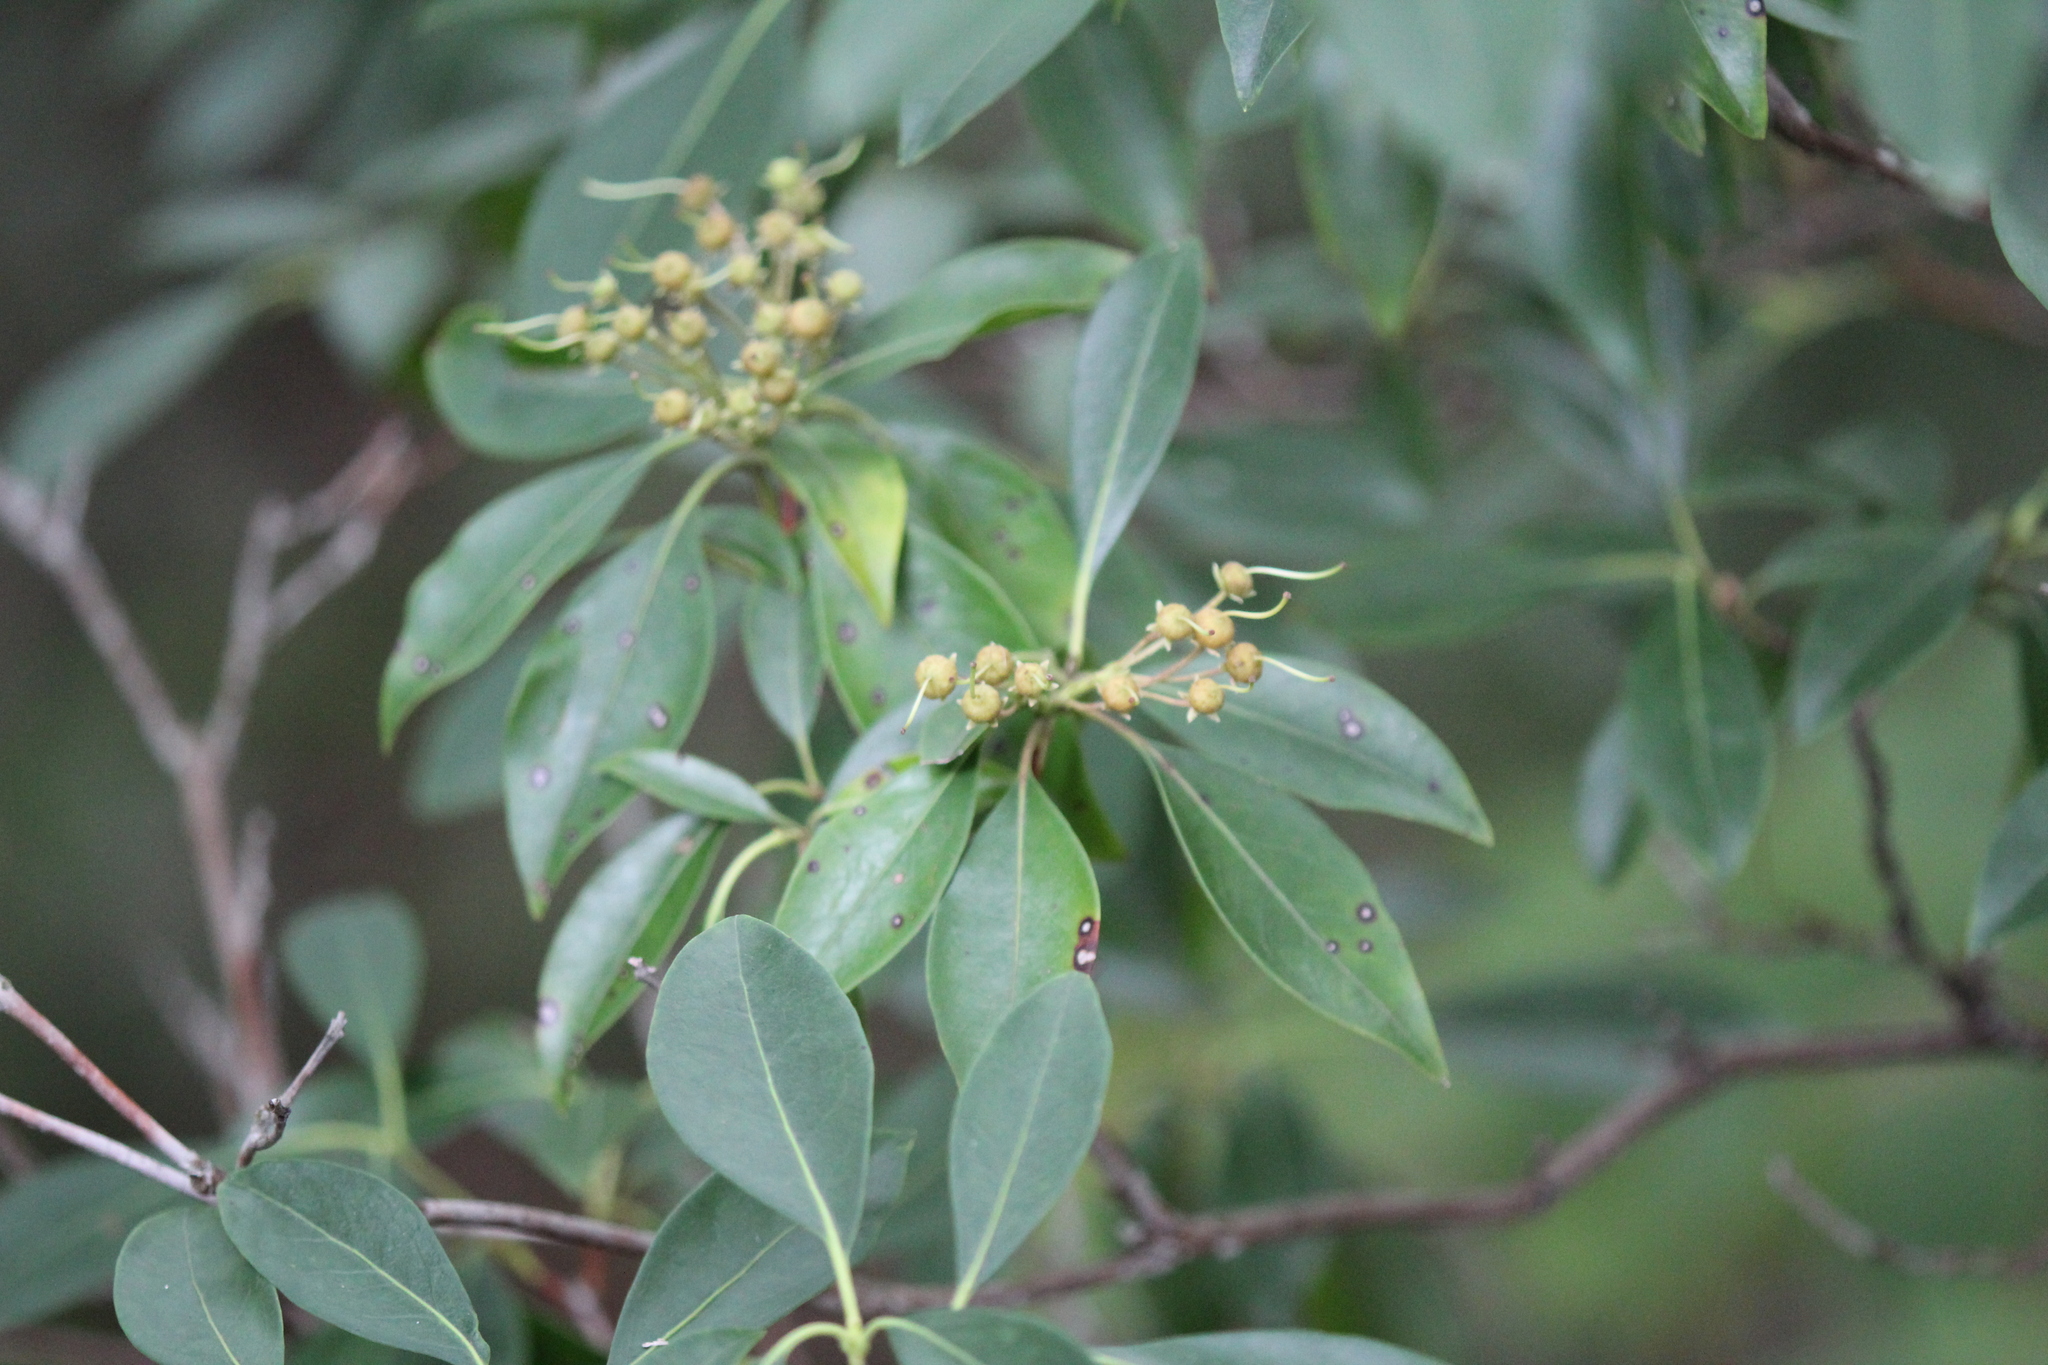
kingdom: Plantae
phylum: Tracheophyta
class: Magnoliopsida
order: Ericales
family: Ericaceae
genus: Kalmia
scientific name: Kalmia latifolia
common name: Mountain-laurel
